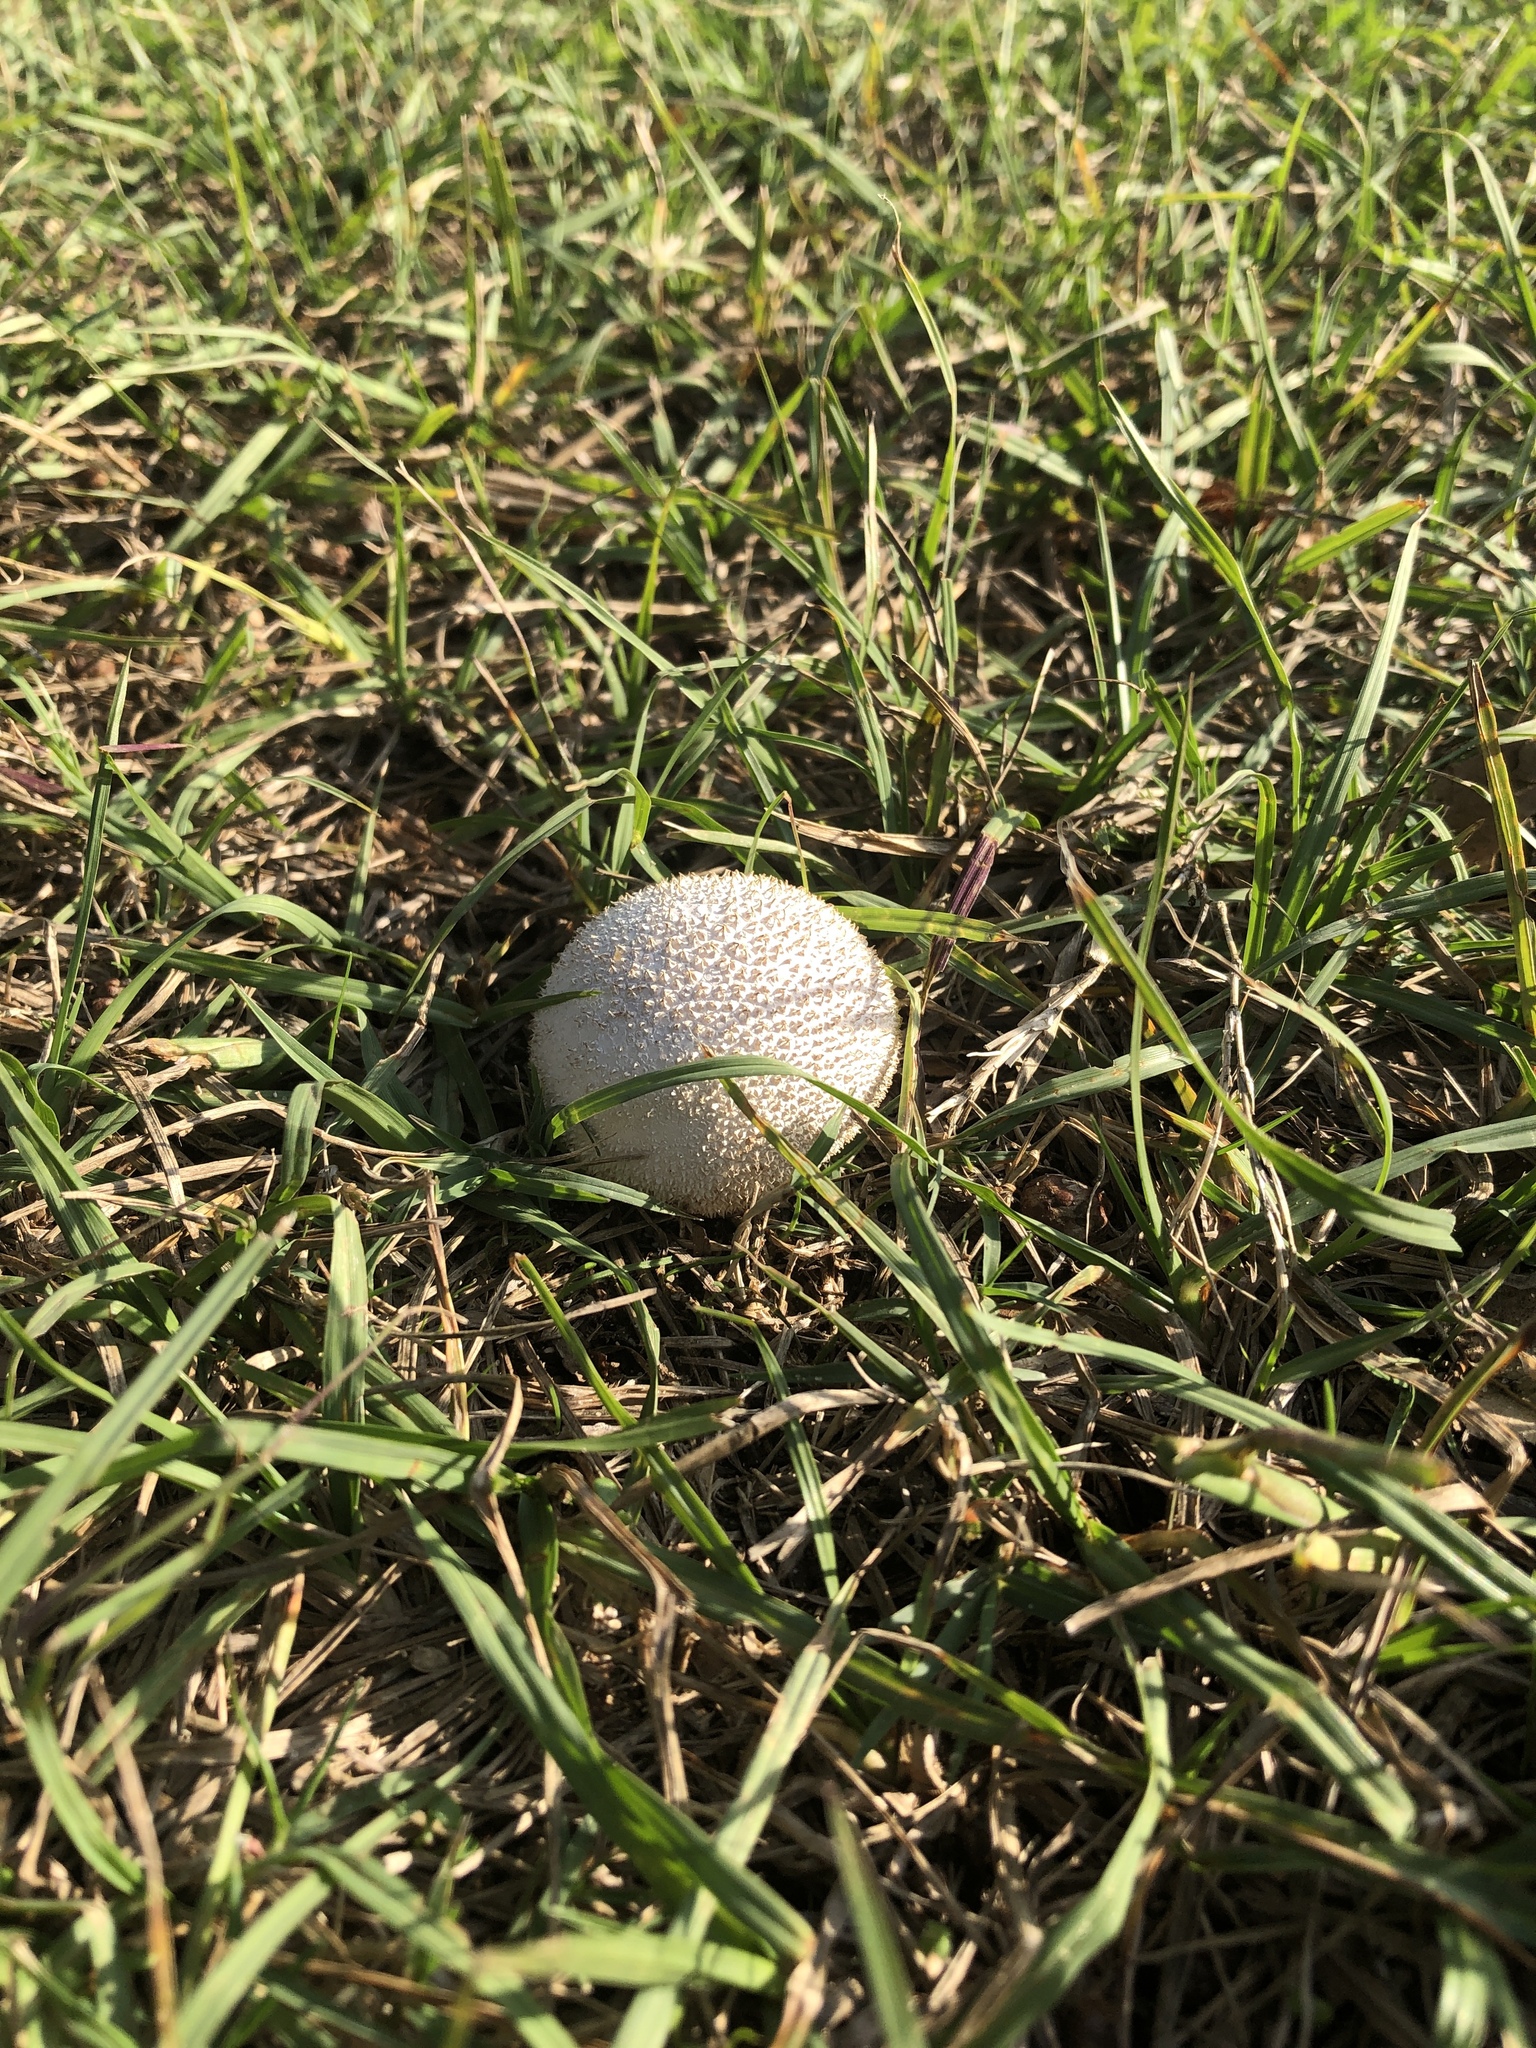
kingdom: Fungi
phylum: Basidiomycota
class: Agaricomycetes
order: Agaricales
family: Agaricaceae
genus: Lycoperdon
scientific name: Lycoperdon marginatum
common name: Peeling puffball
